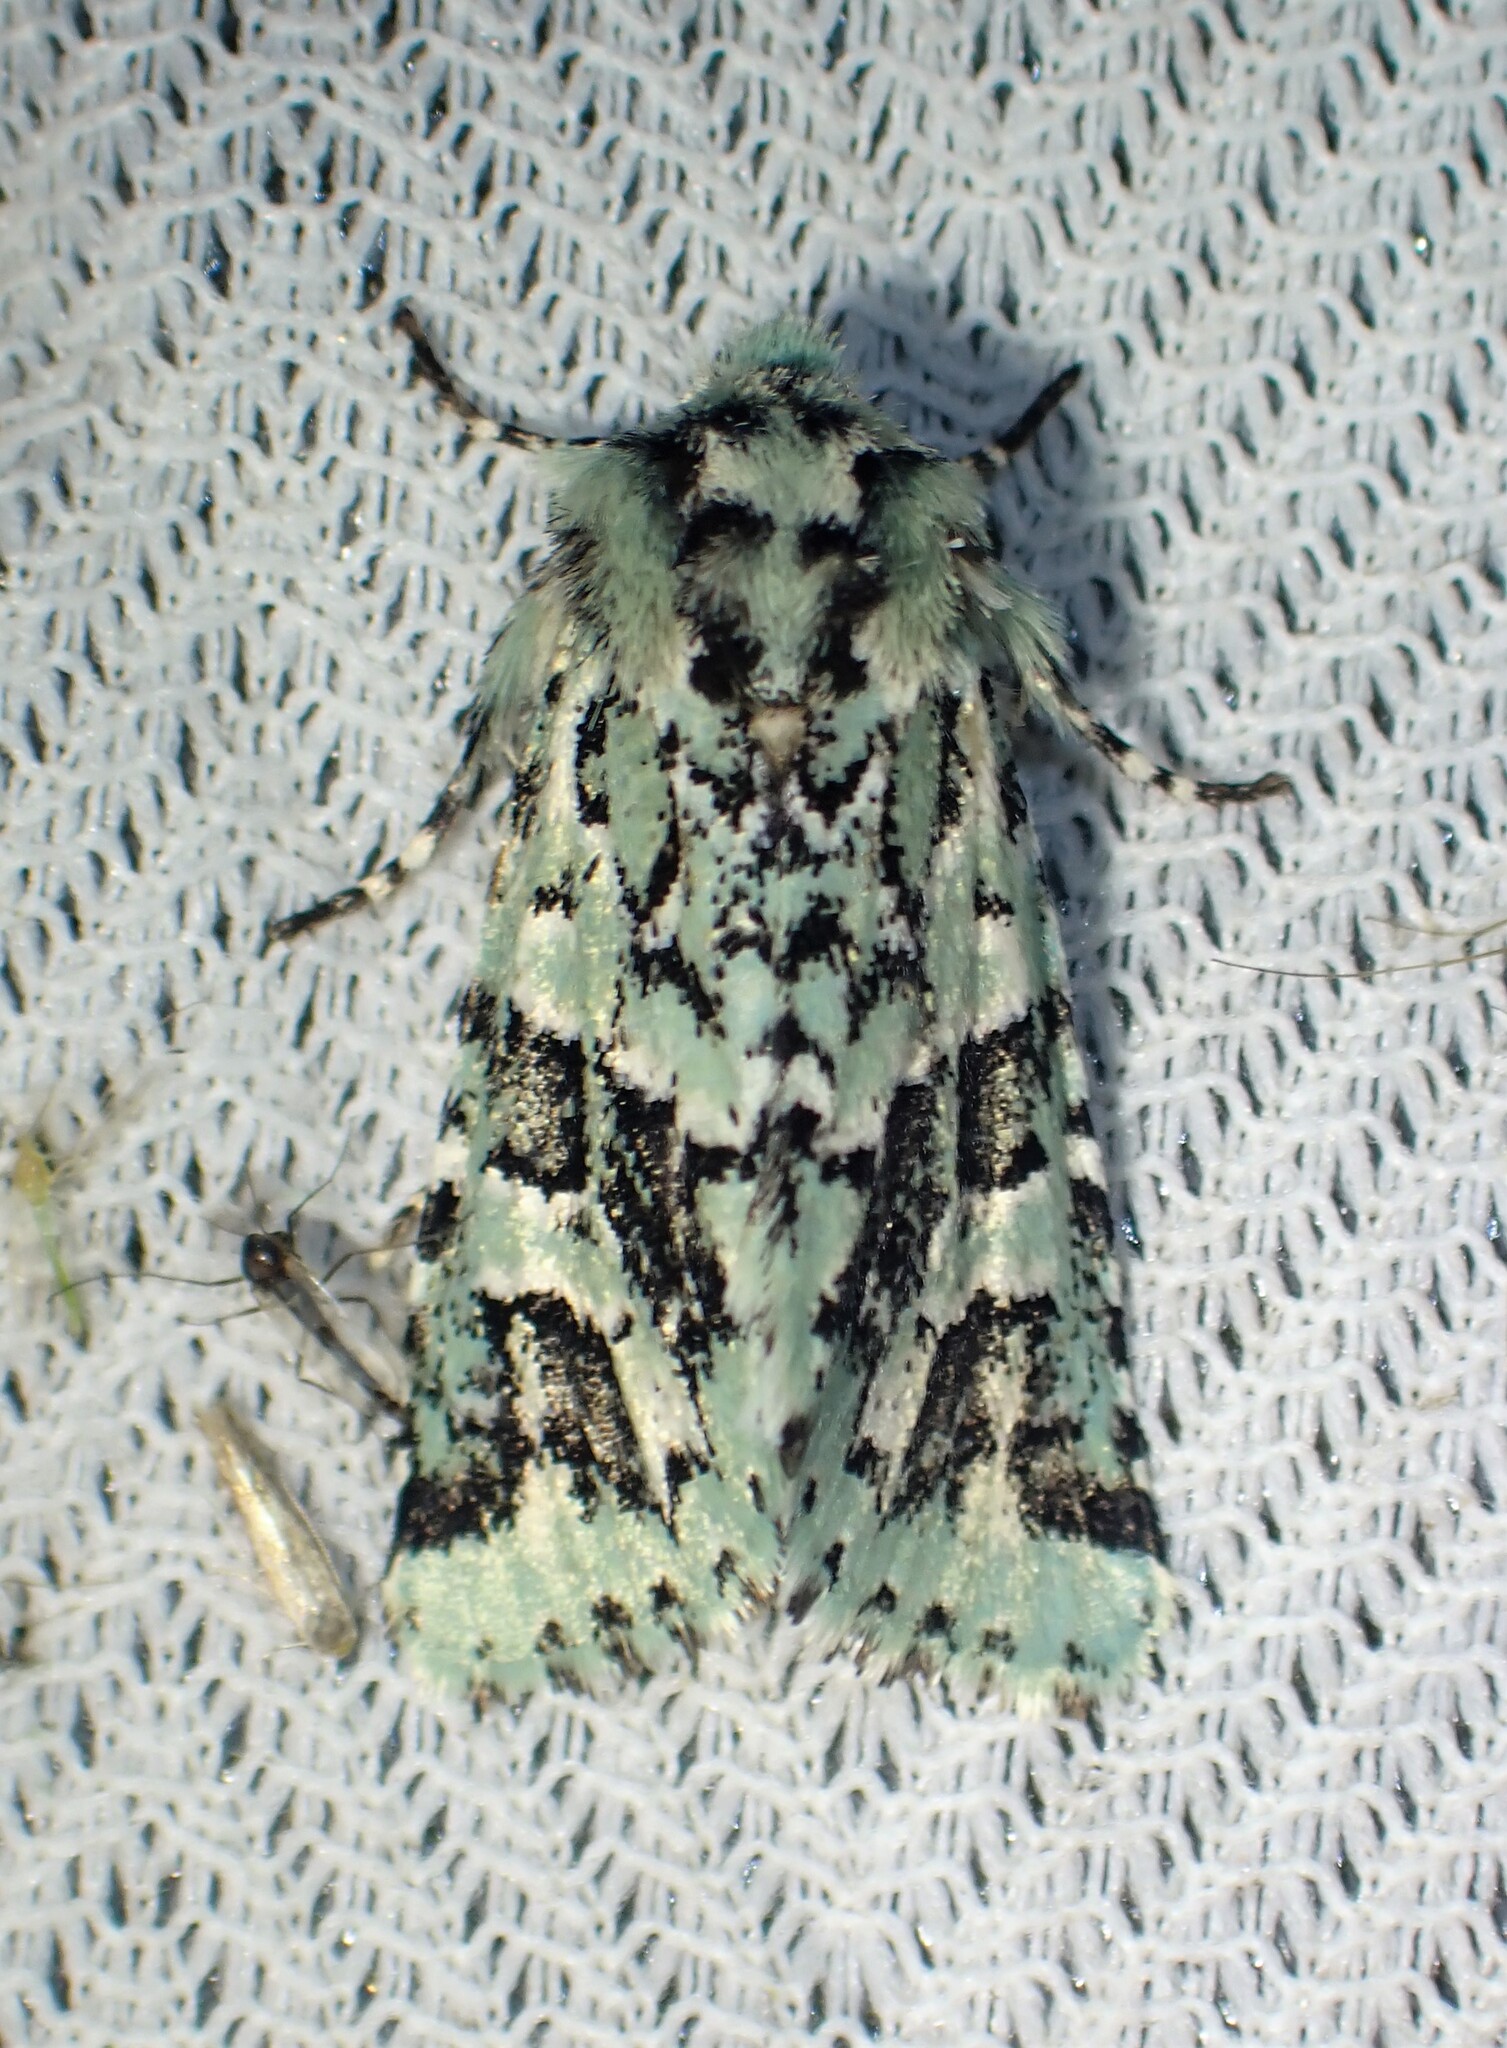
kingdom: Animalia
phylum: Arthropoda
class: Insecta
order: Lepidoptera
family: Noctuidae
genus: Feralia
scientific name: Feralia comstocki
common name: Comstock's sallow
